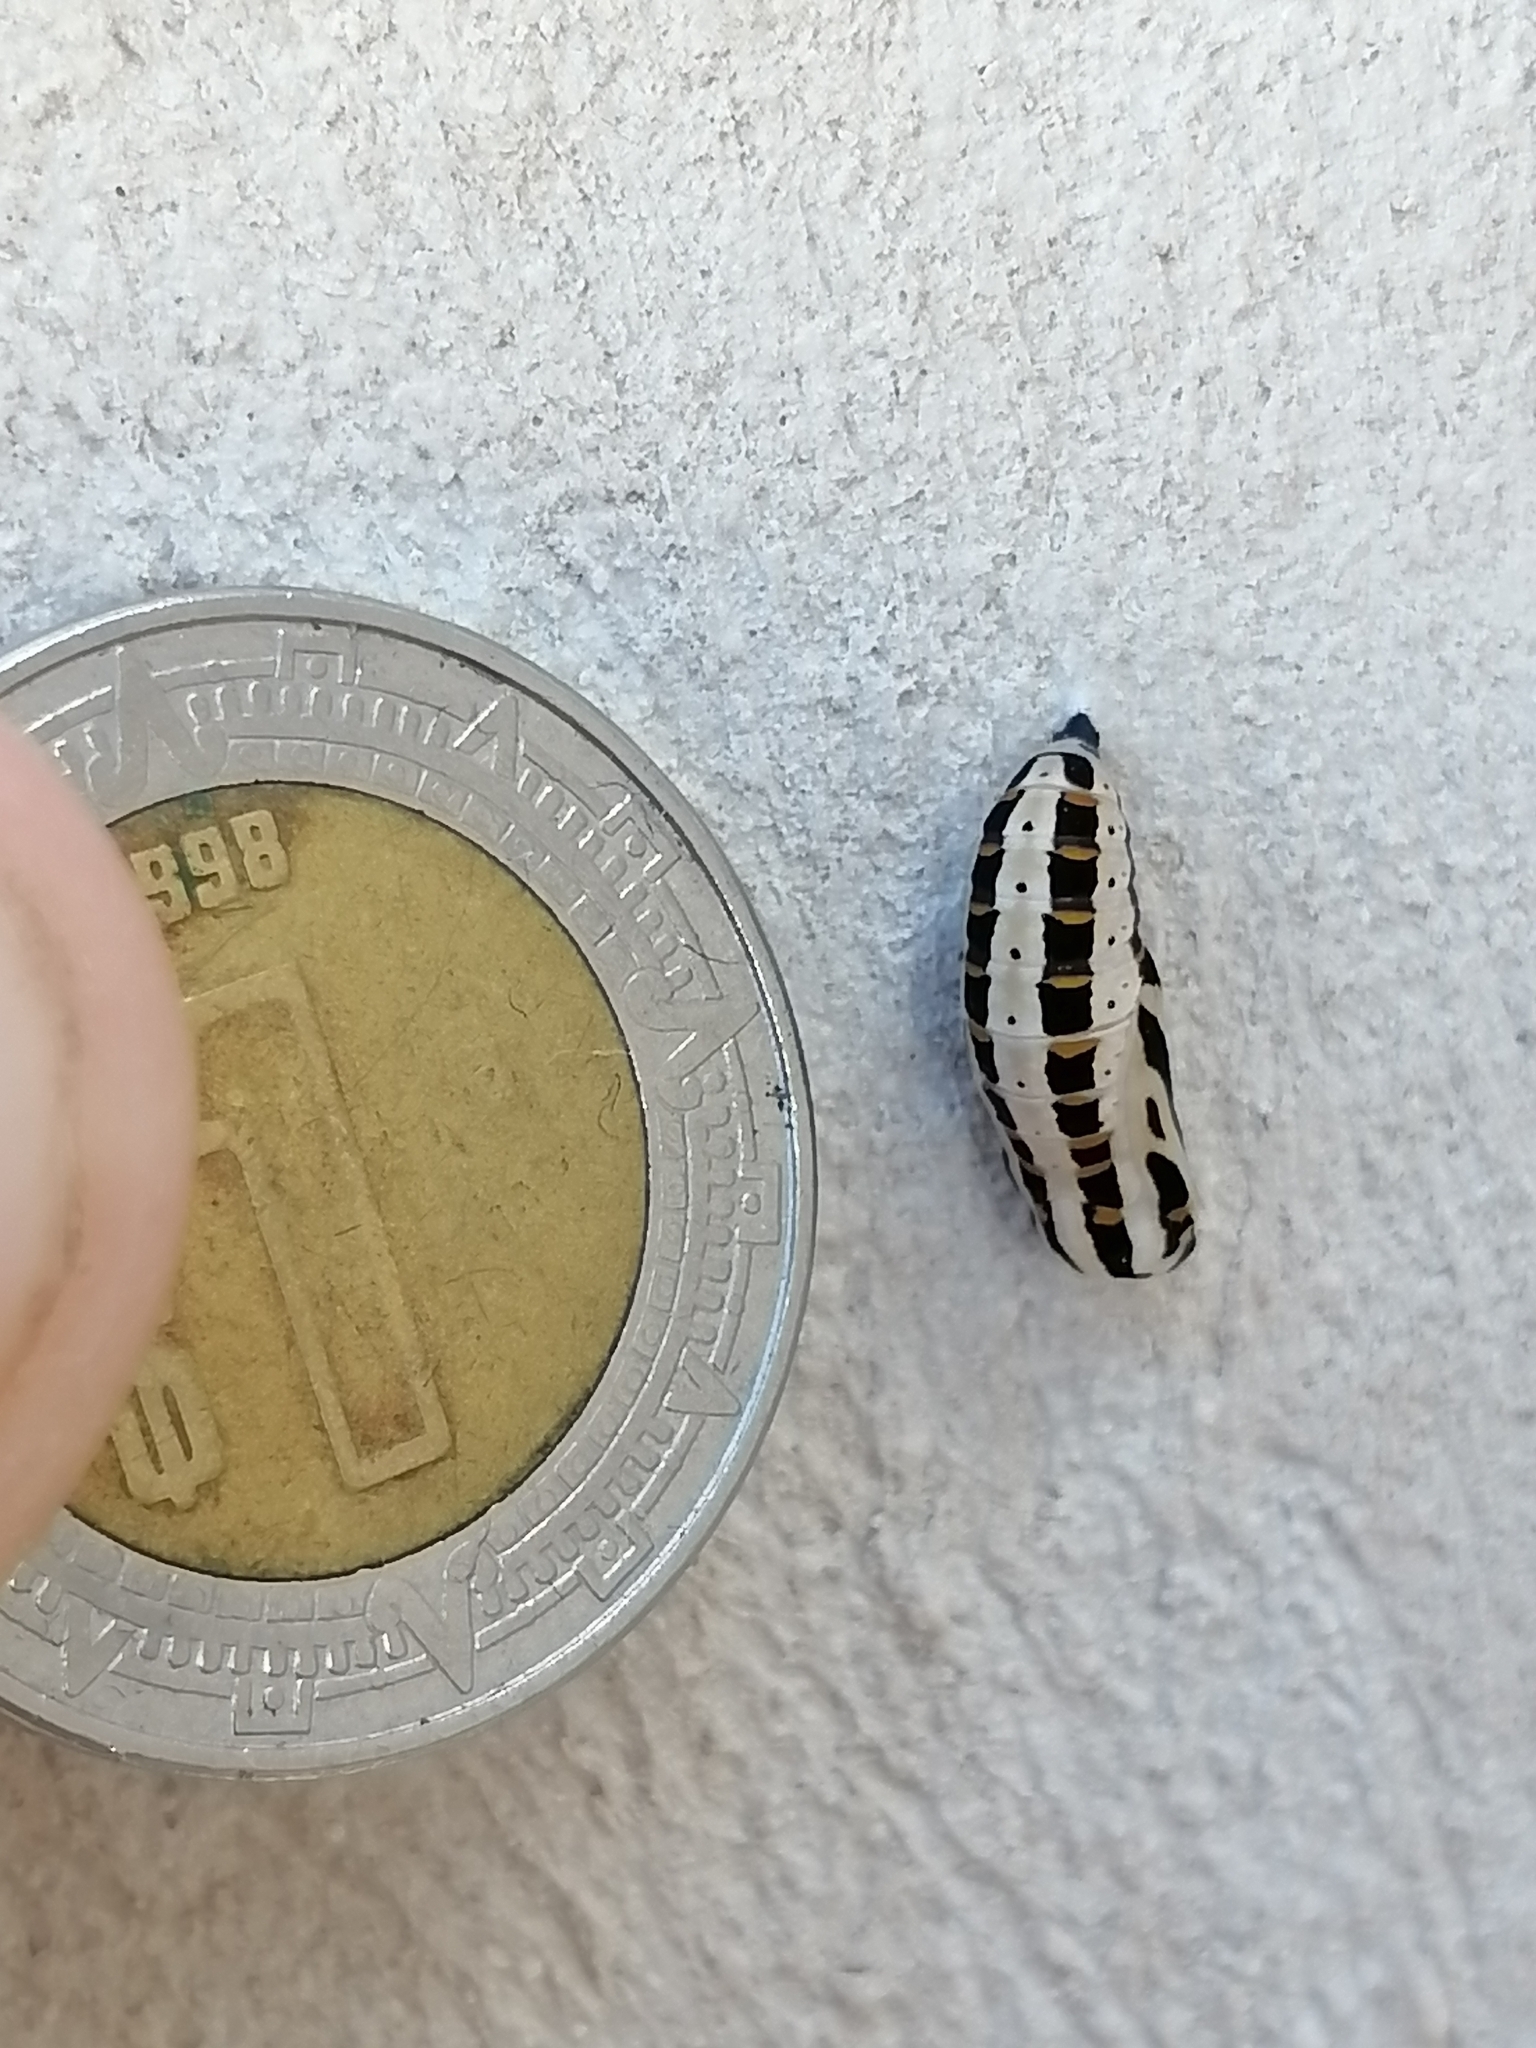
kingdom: Animalia
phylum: Arthropoda
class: Insecta
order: Lepidoptera
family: Nymphalidae
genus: Thessalia
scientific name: Thessalia theona
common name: Nymphalid moth
